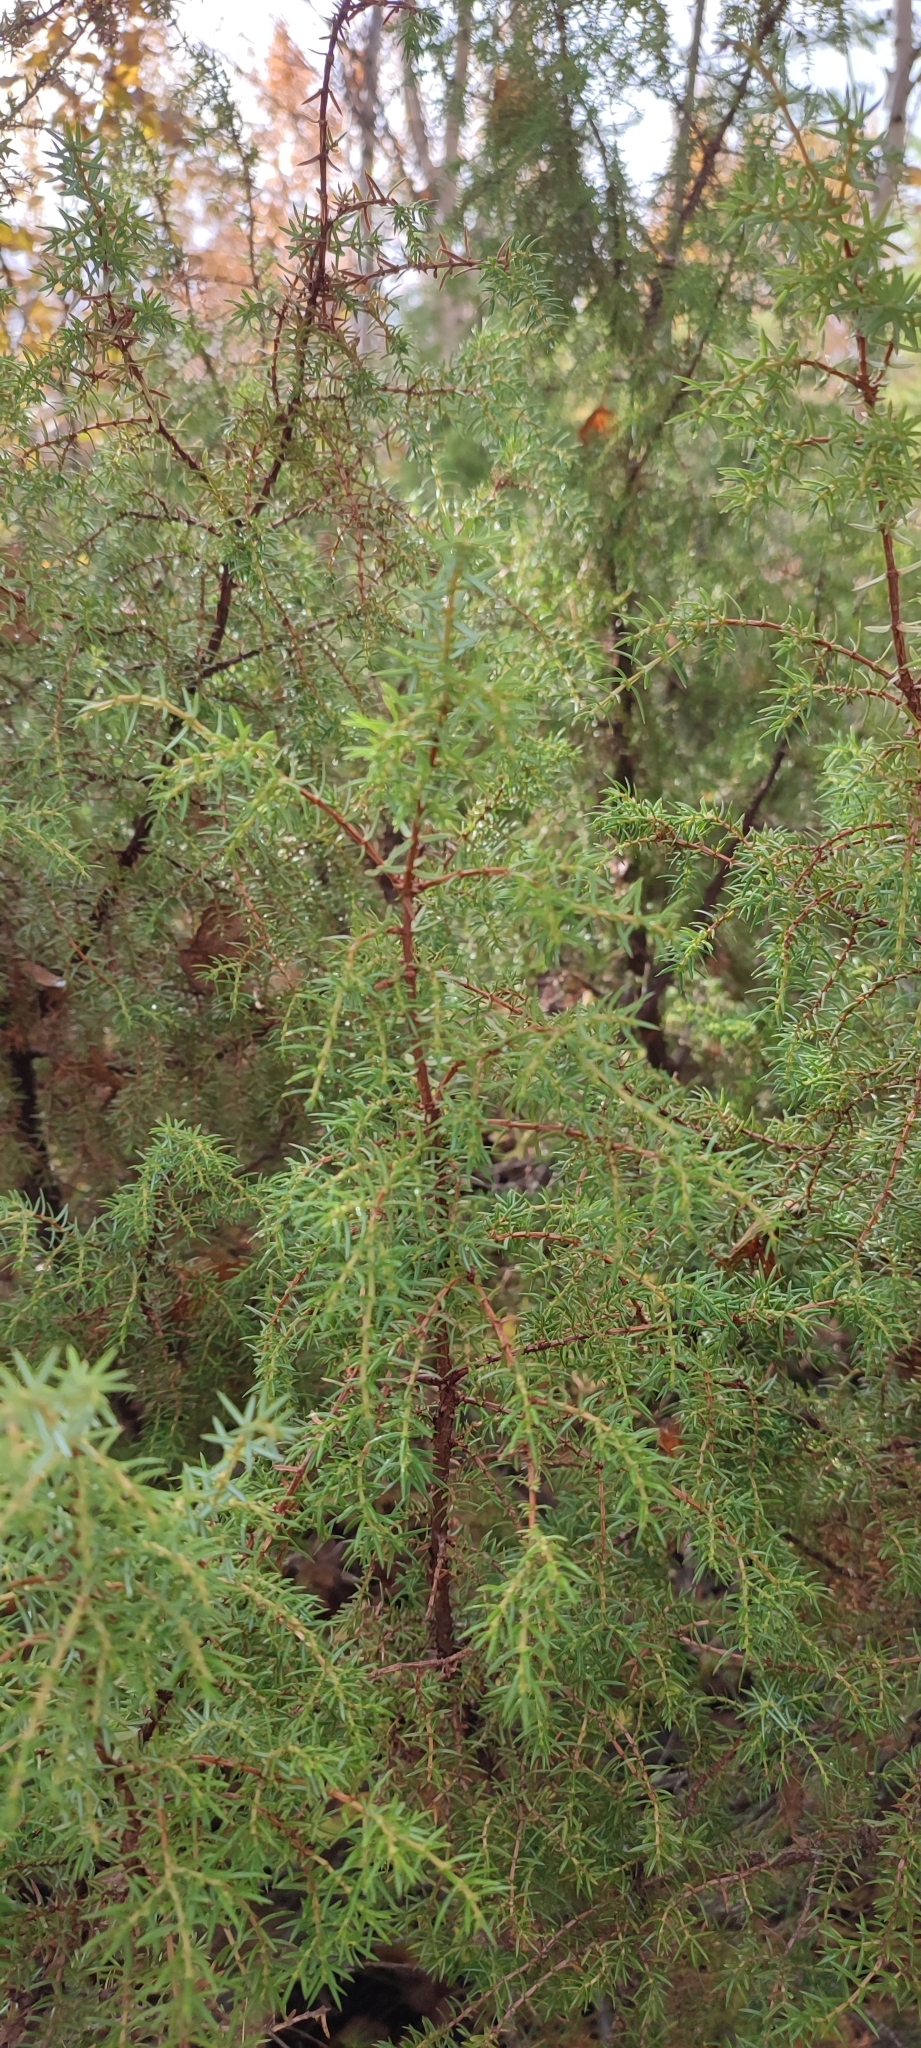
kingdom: Plantae
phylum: Tracheophyta
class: Pinopsida
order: Pinales
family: Cupressaceae
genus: Juniperus
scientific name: Juniperus communis
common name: Common juniper
